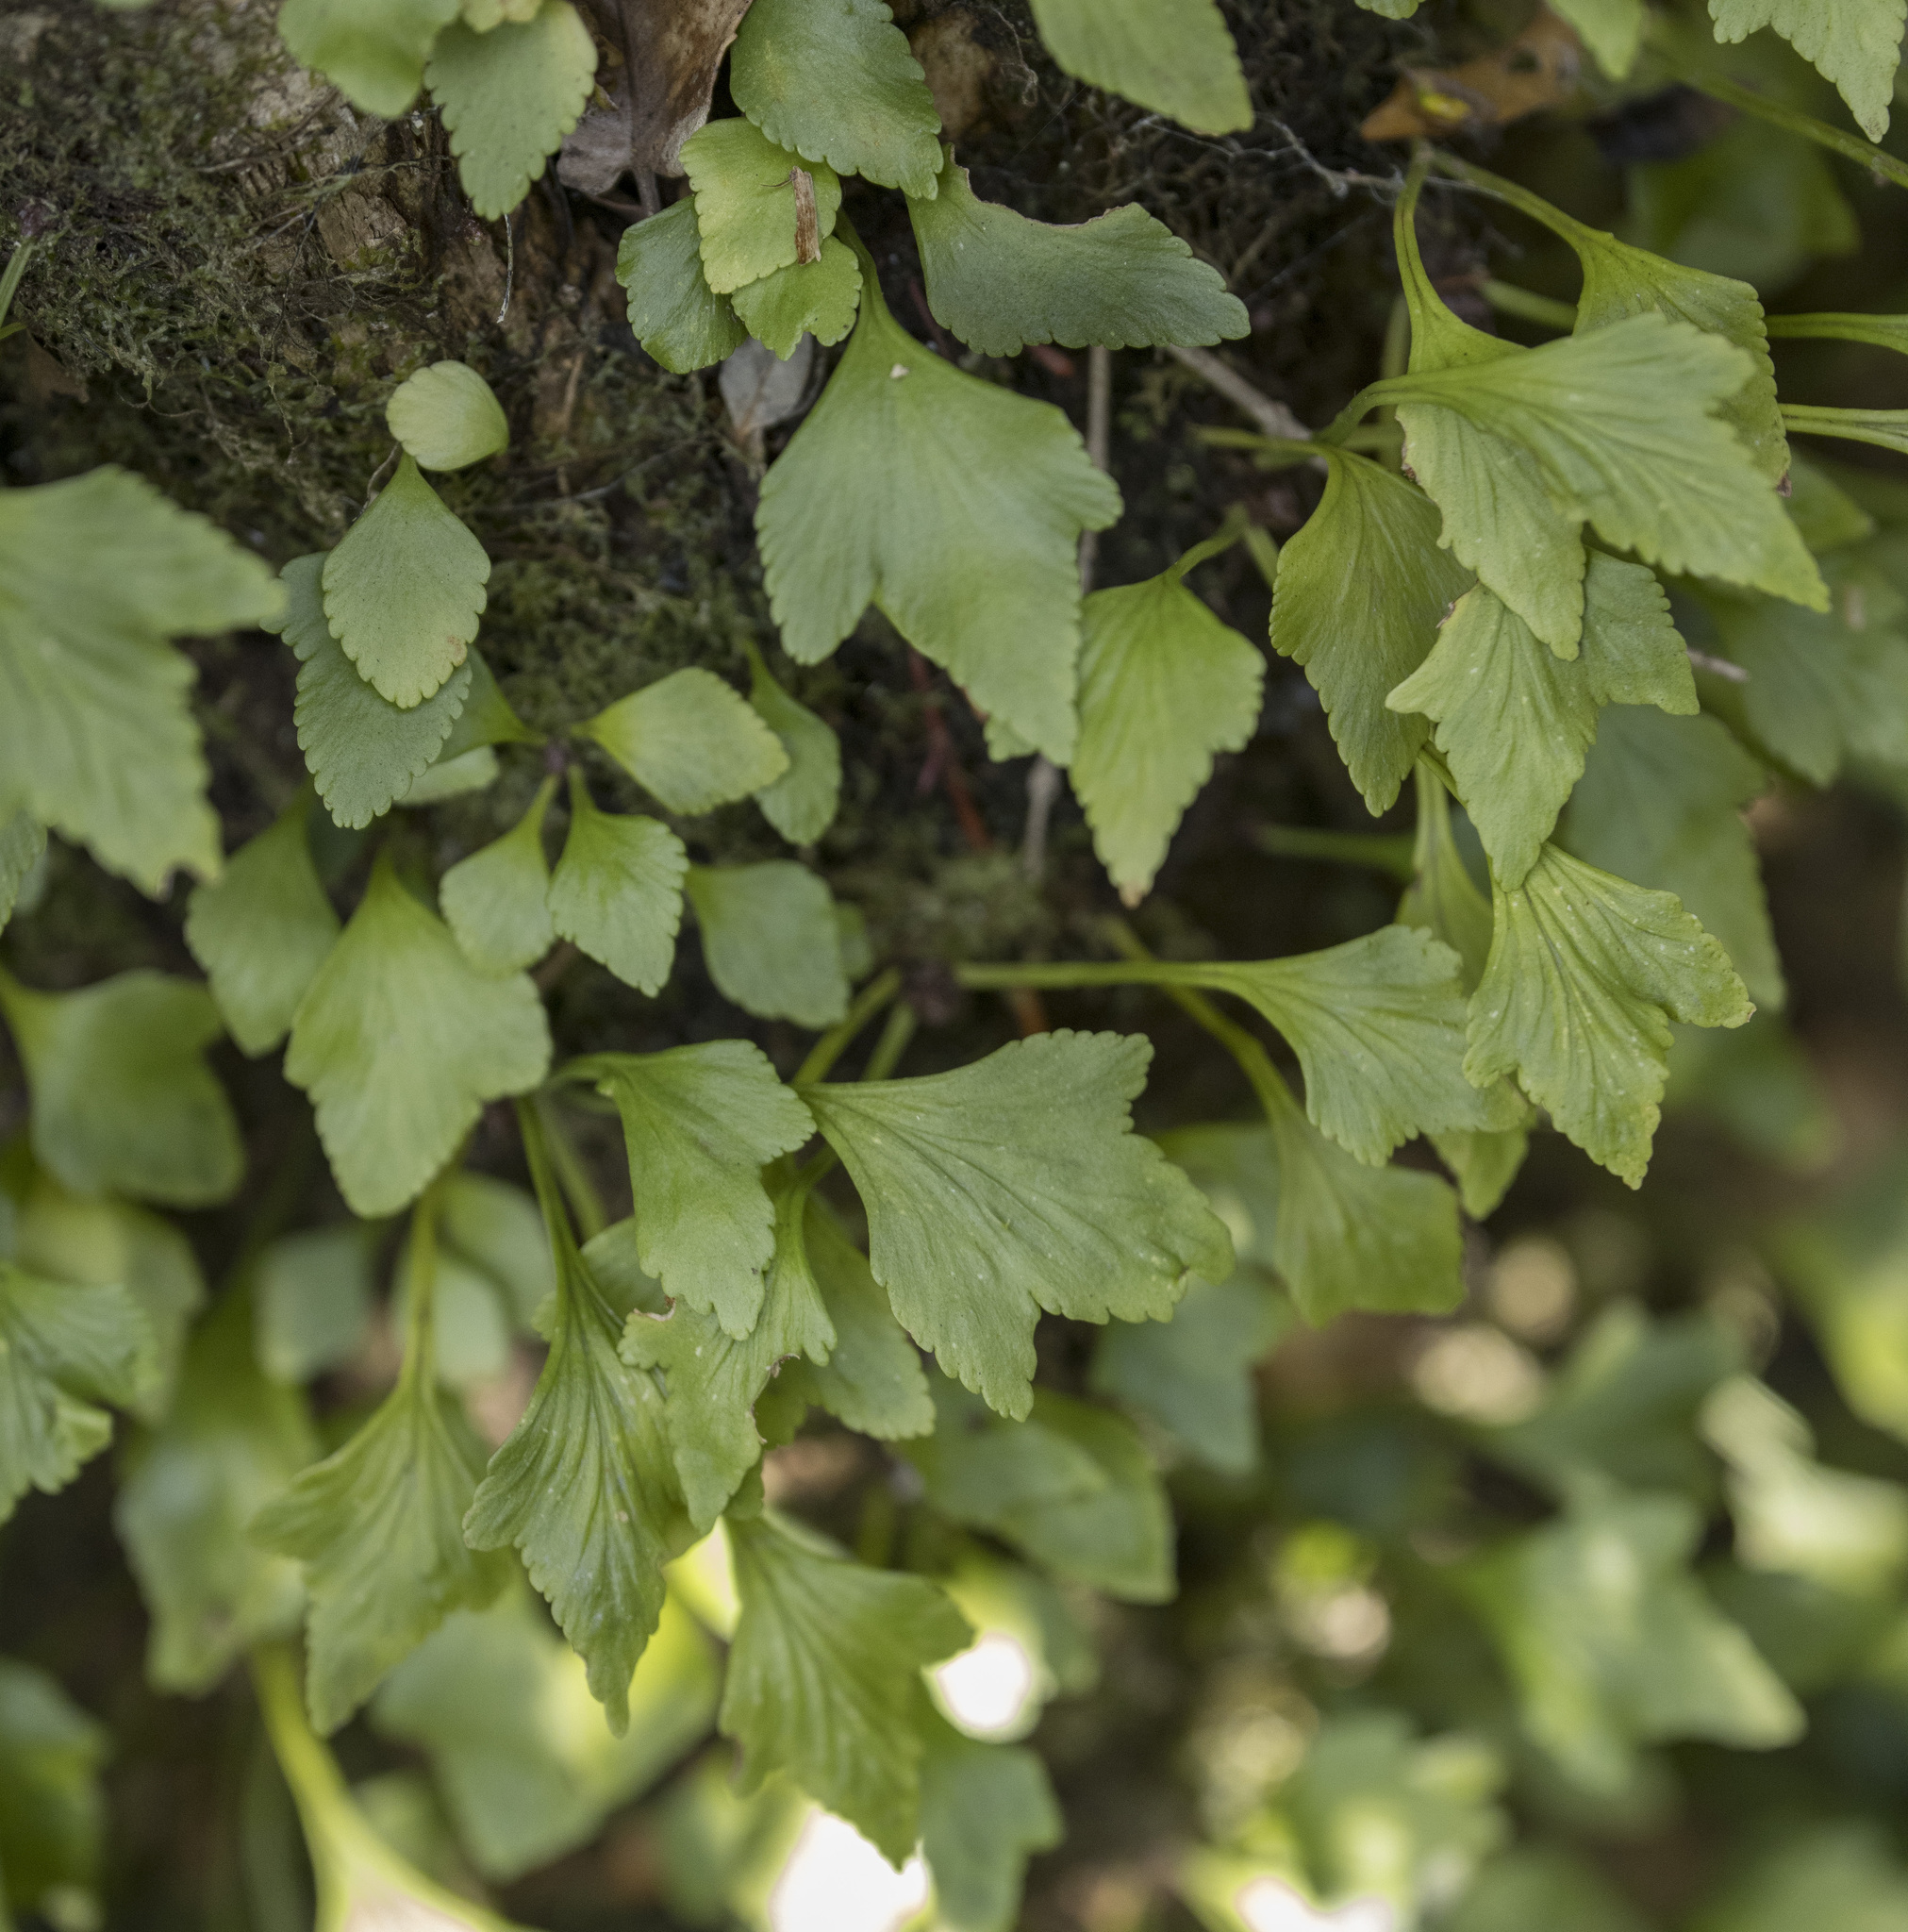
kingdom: Plantae
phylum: Tracheophyta
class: Polypodiopsida
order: Polypodiales
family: Aspleniaceae
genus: Asplenium
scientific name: Asplenium trilobum
